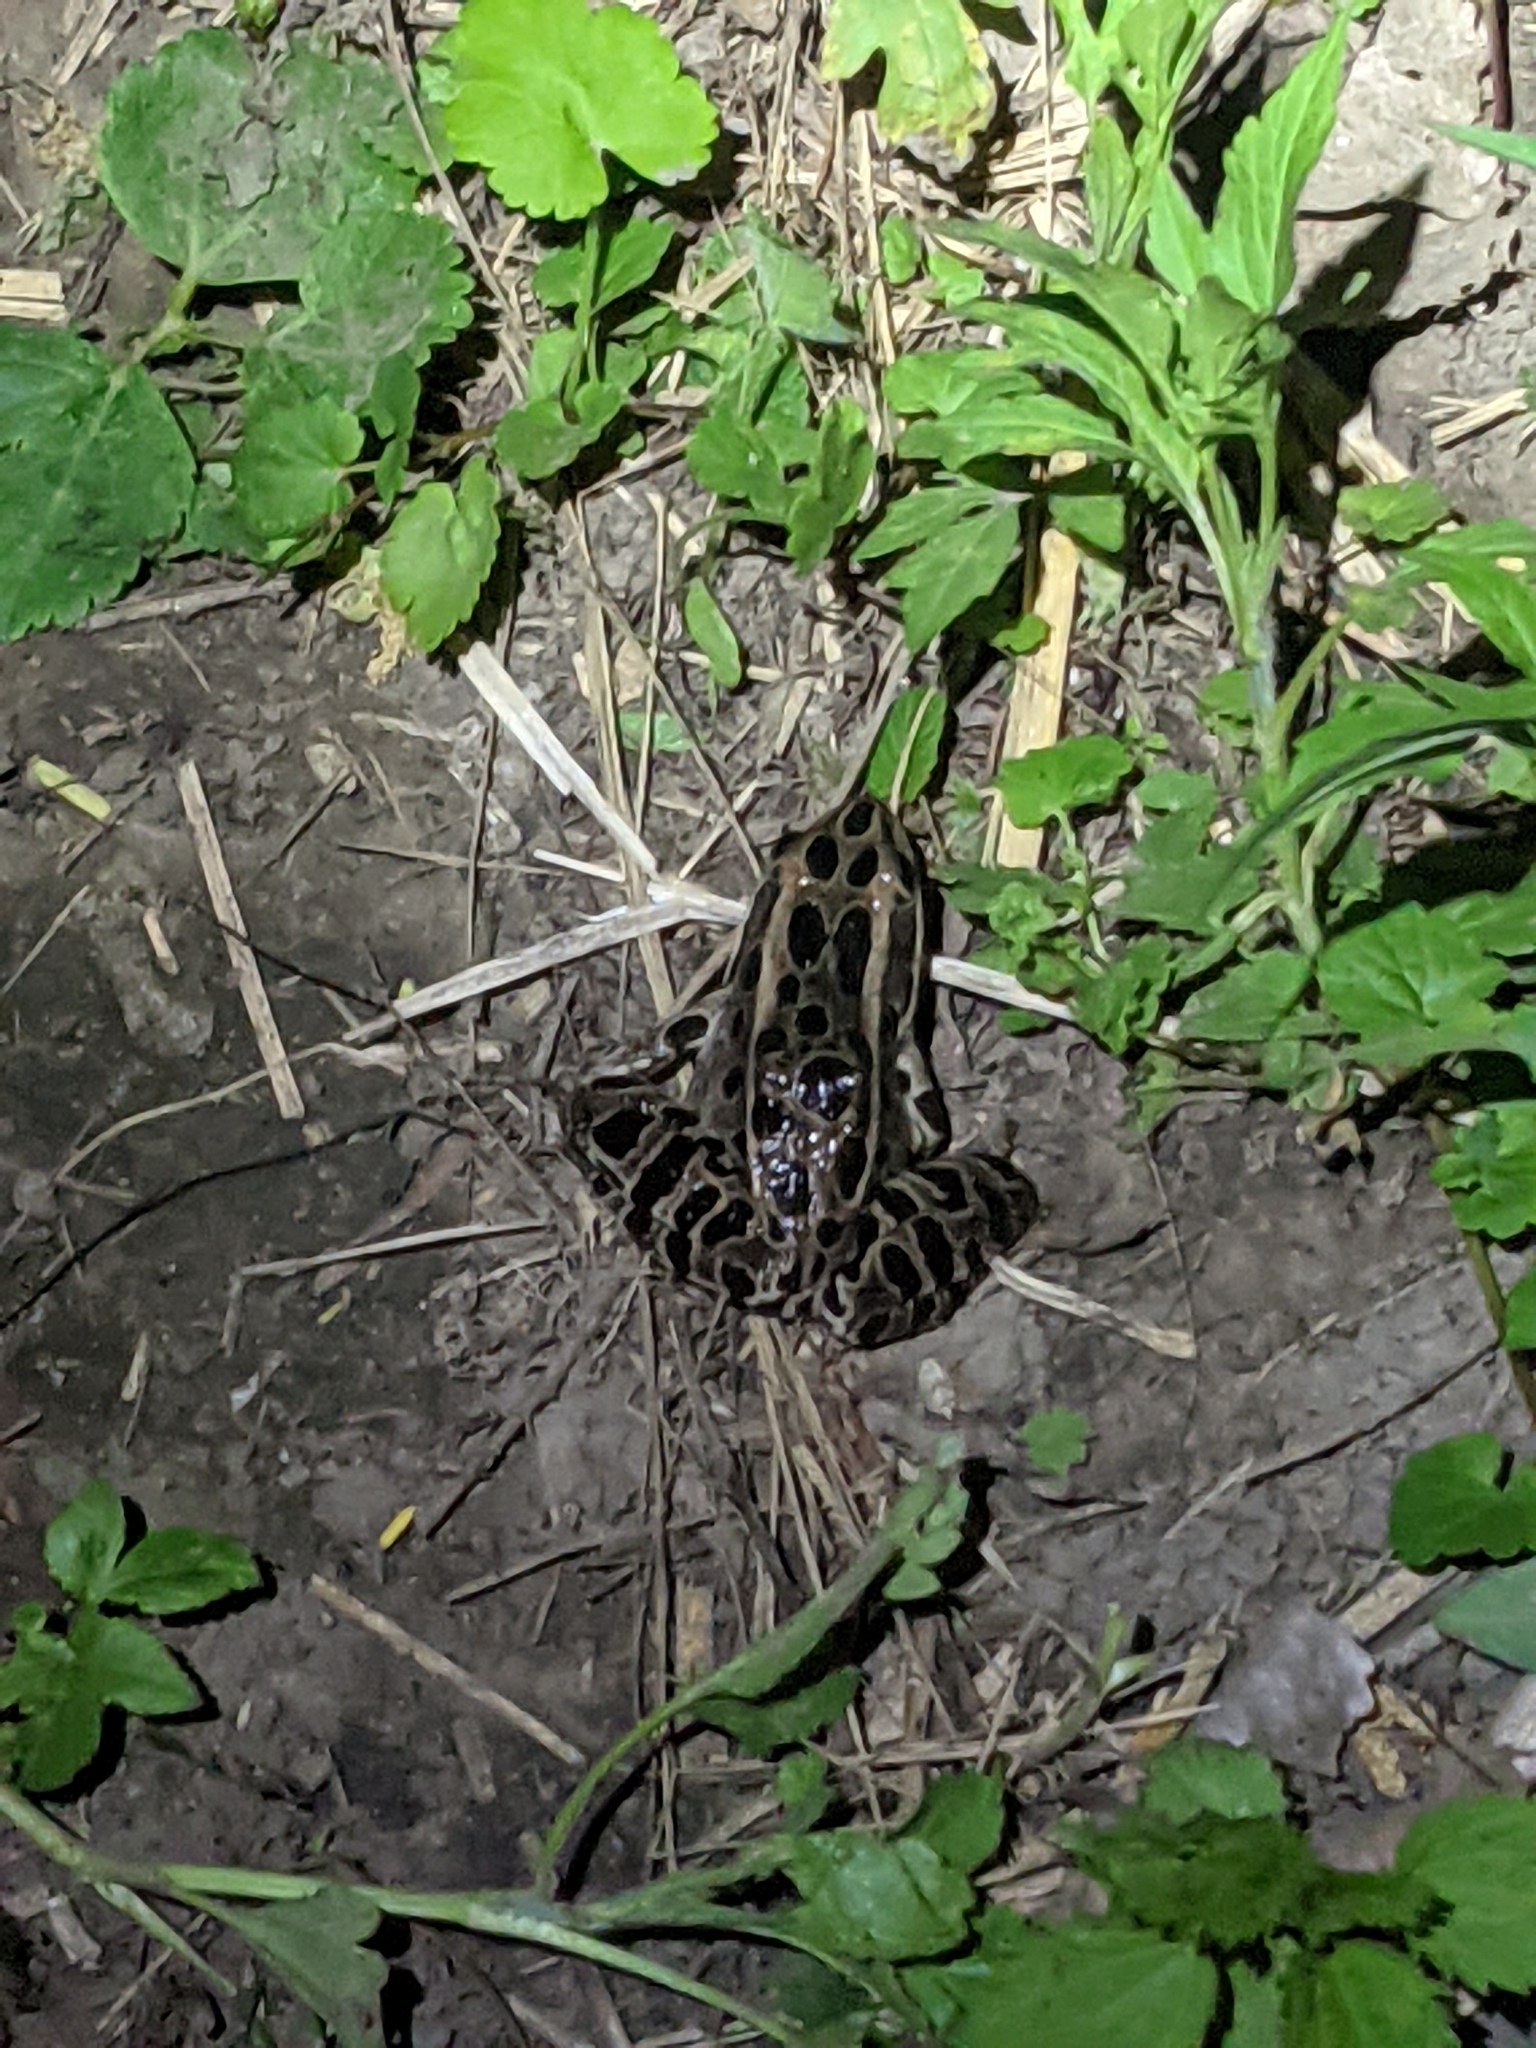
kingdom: Animalia
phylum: Chordata
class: Amphibia
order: Anura
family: Ranidae
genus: Lithobates
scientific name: Lithobates pipiens
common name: Northern leopard frog
